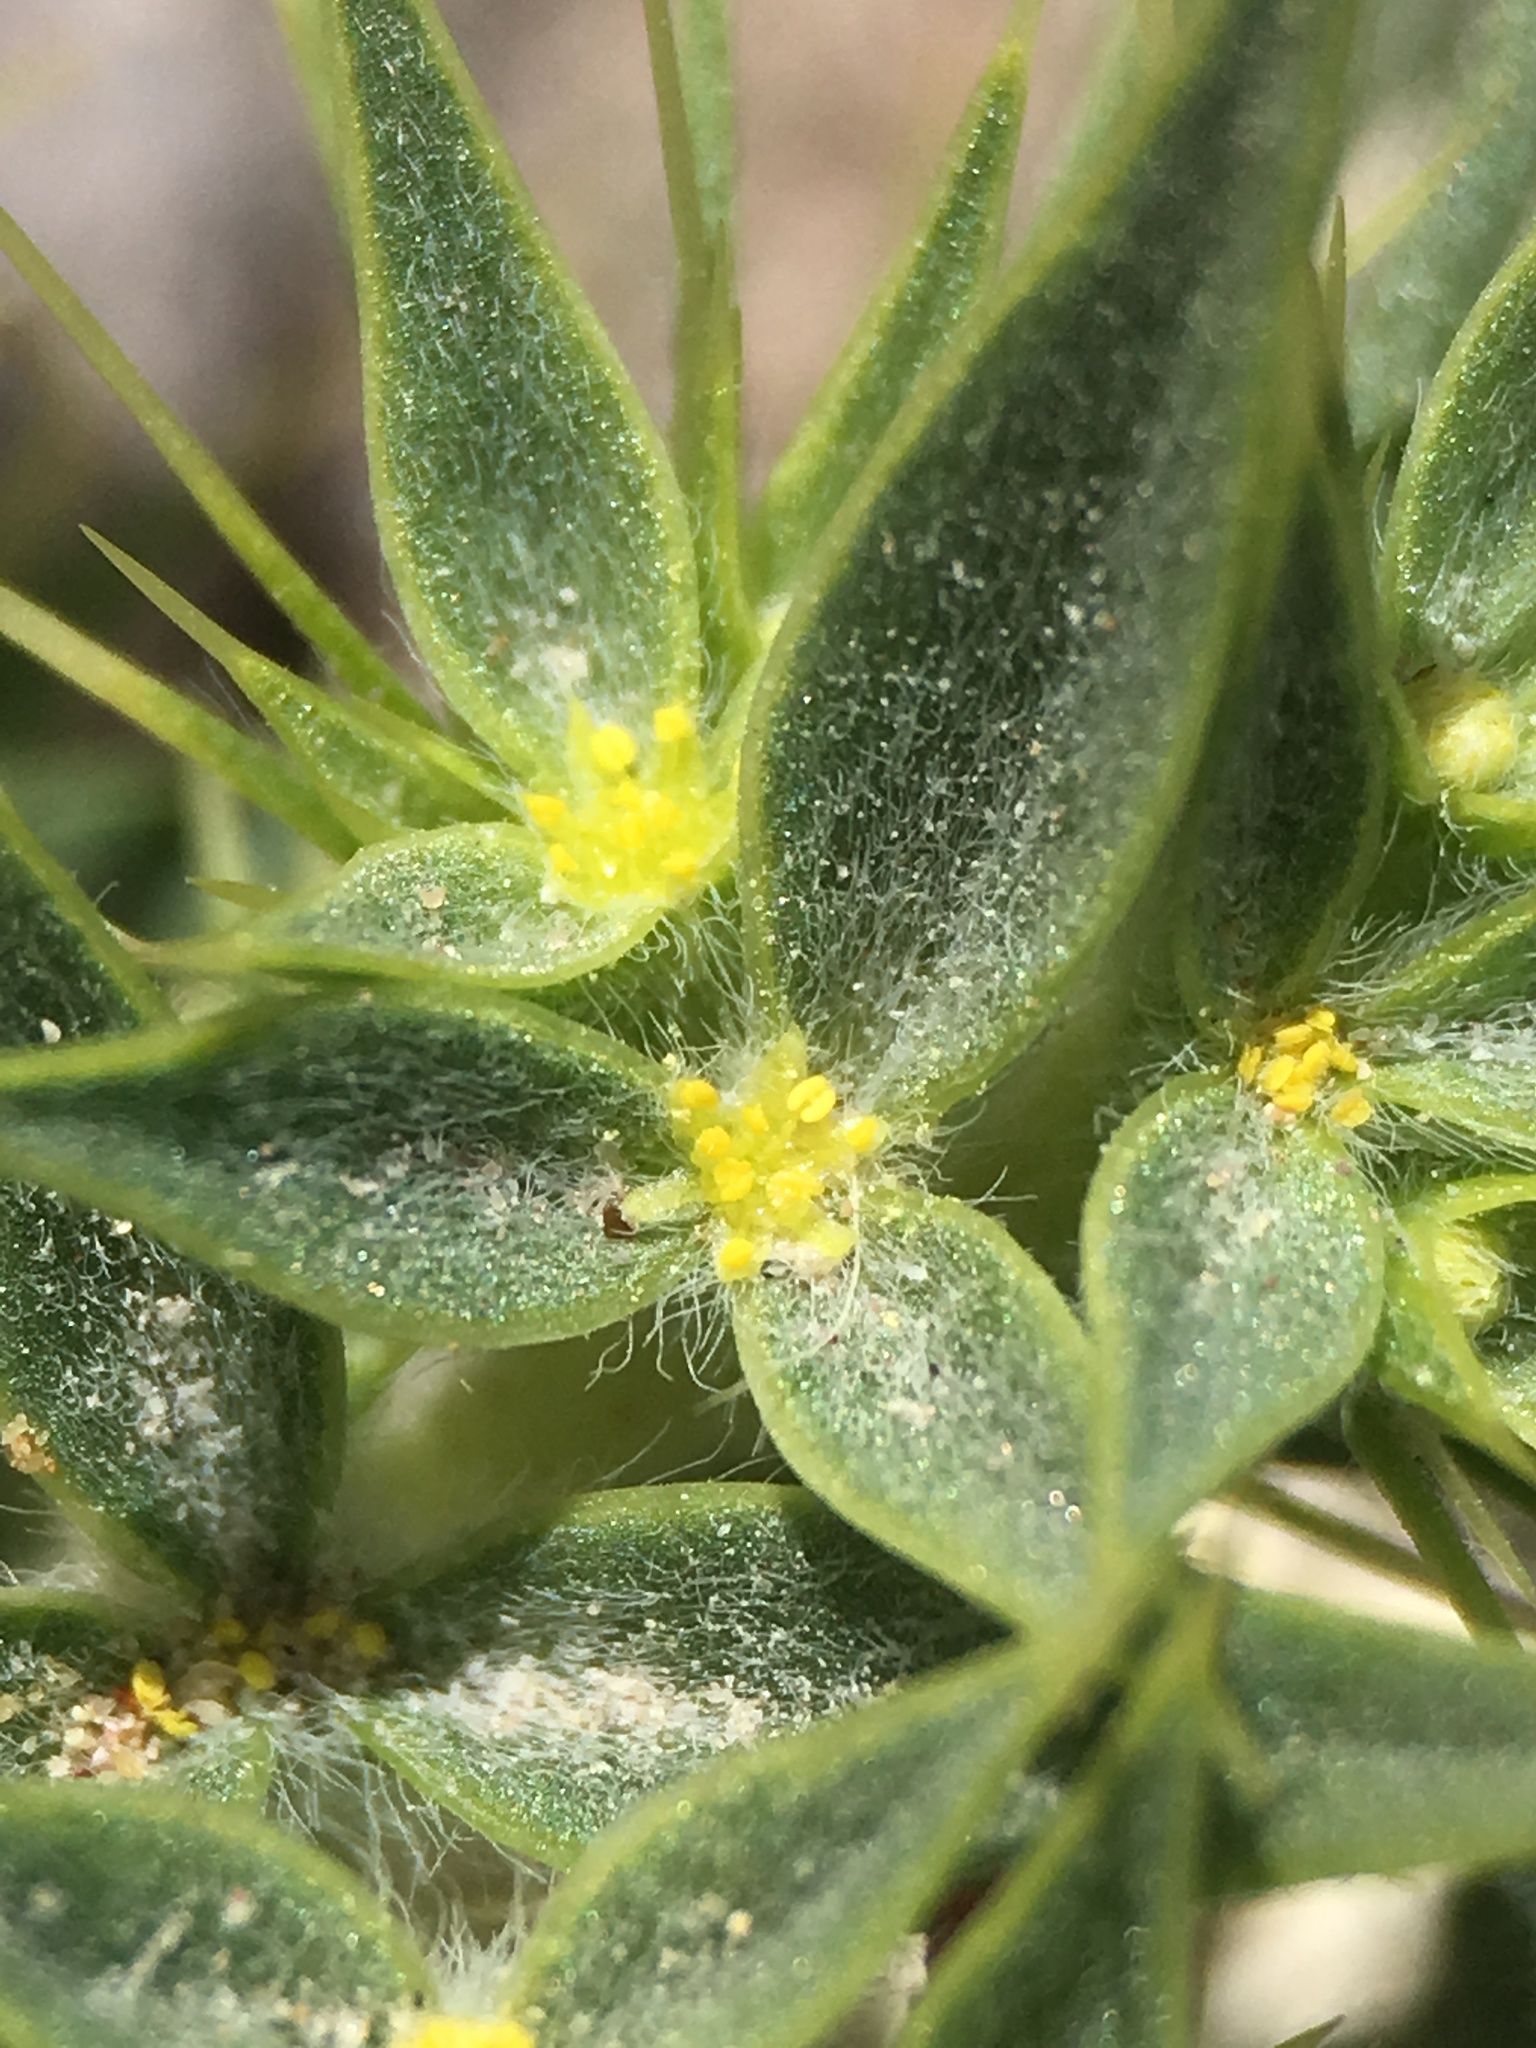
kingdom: Plantae
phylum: Tracheophyta
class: Magnoliopsida
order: Caryophyllales
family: Polygonaceae
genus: Chorizanthe
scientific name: Chorizanthe rigida
